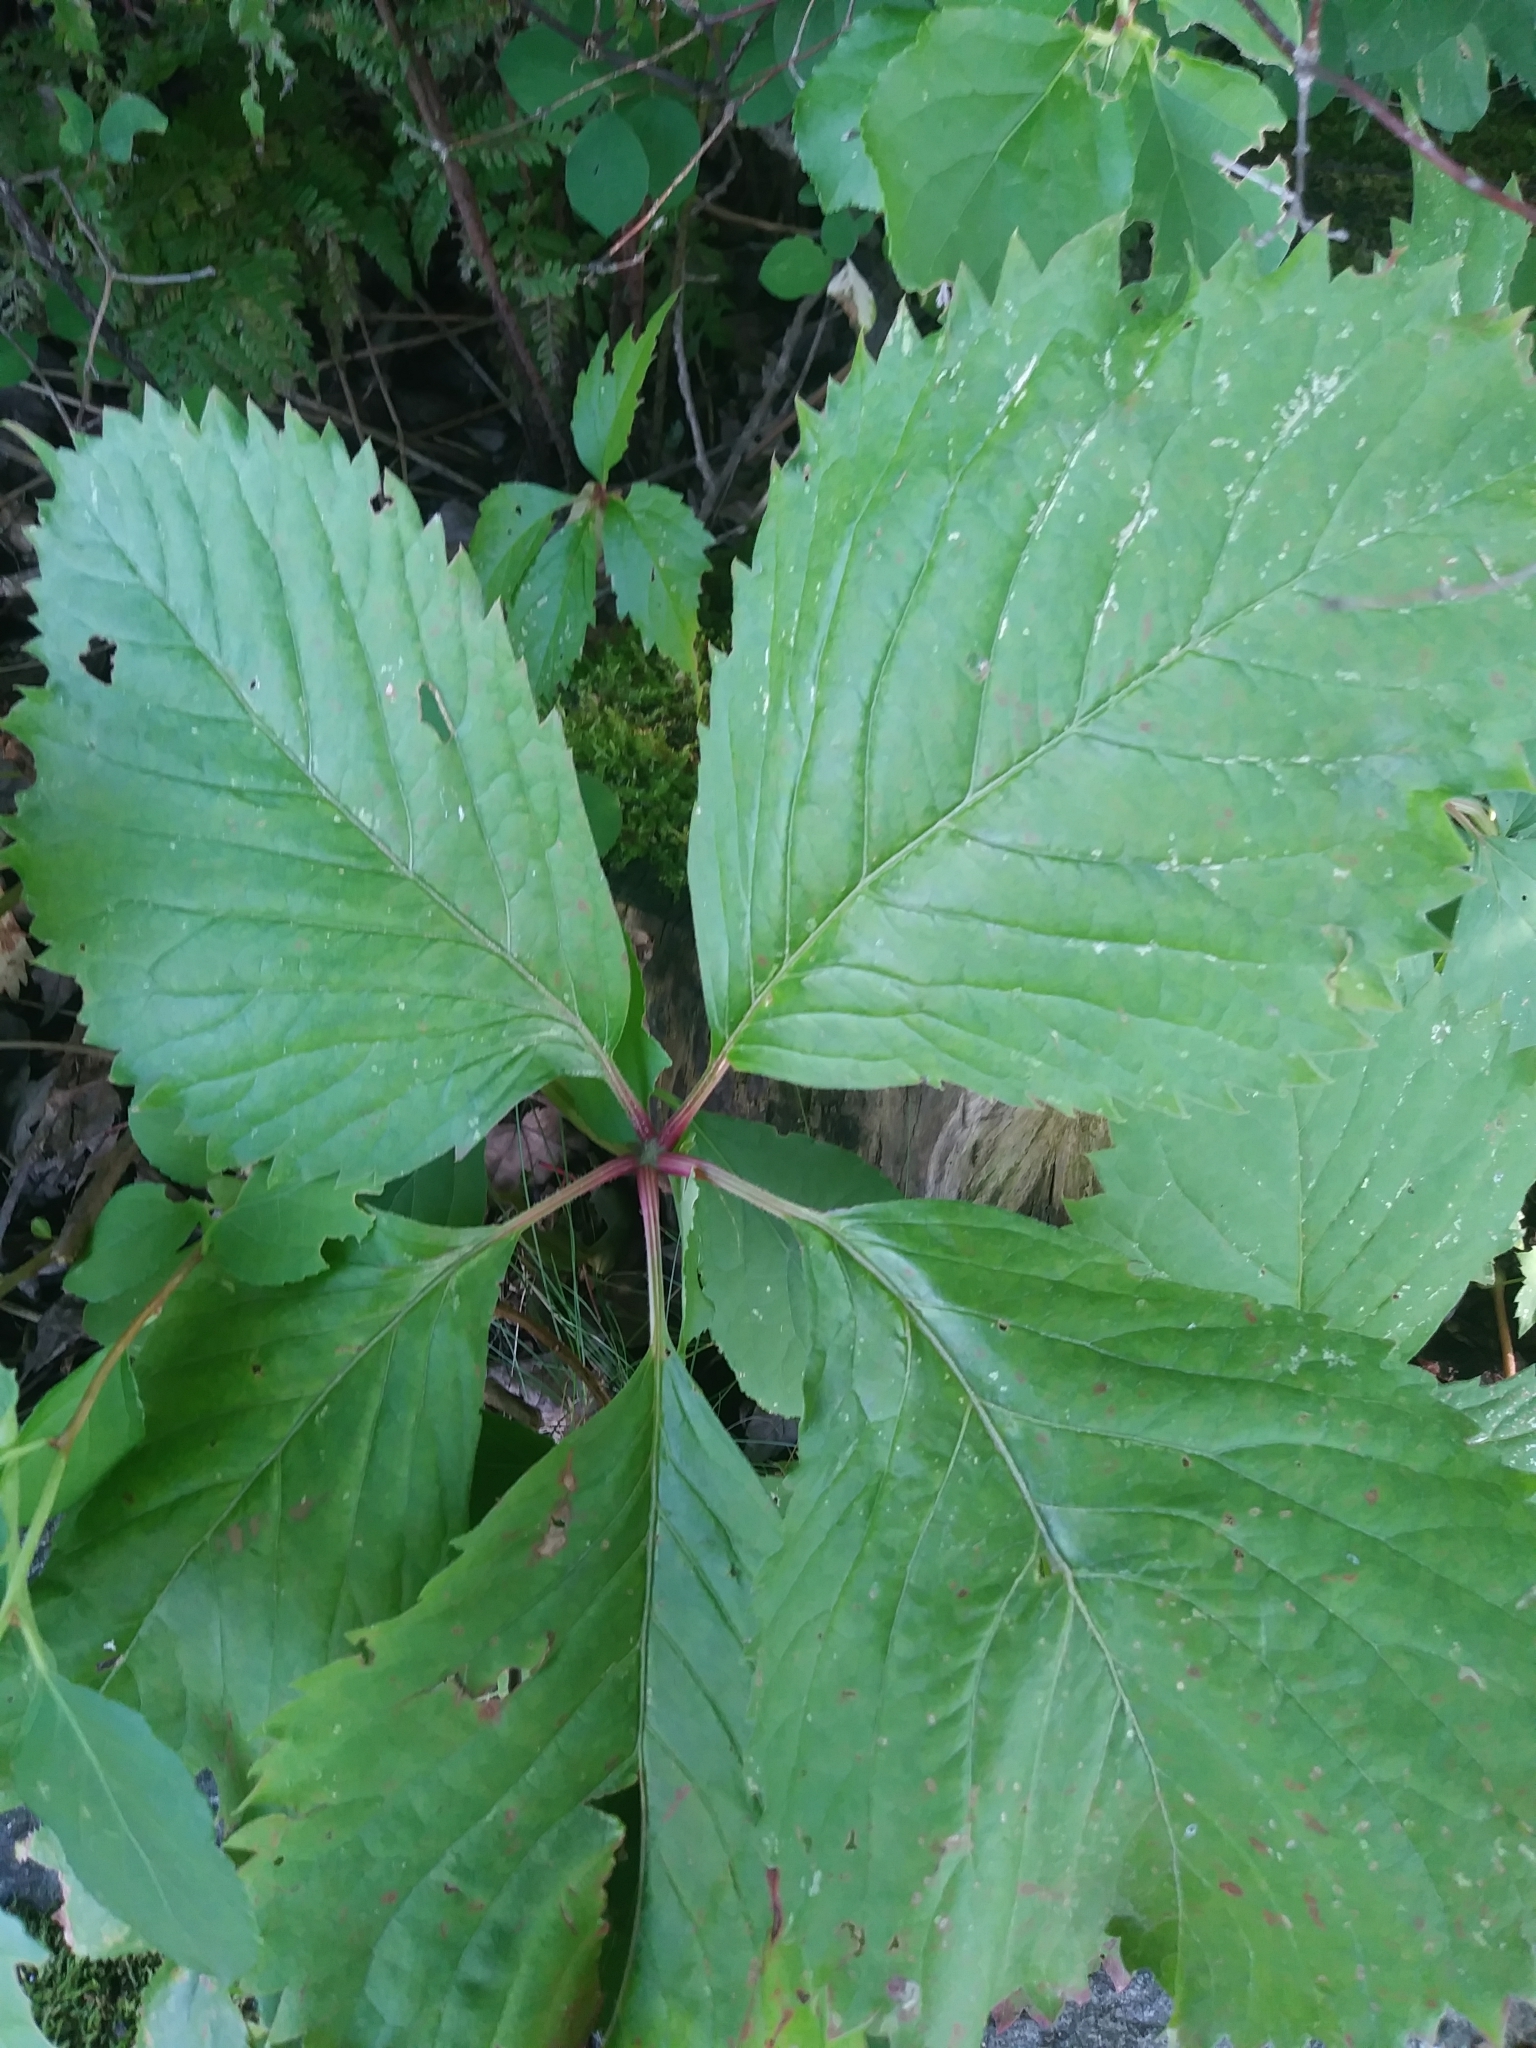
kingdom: Plantae
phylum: Tracheophyta
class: Magnoliopsida
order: Vitales
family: Vitaceae
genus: Parthenocissus
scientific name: Parthenocissus inserta
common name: False virginia-creeper
